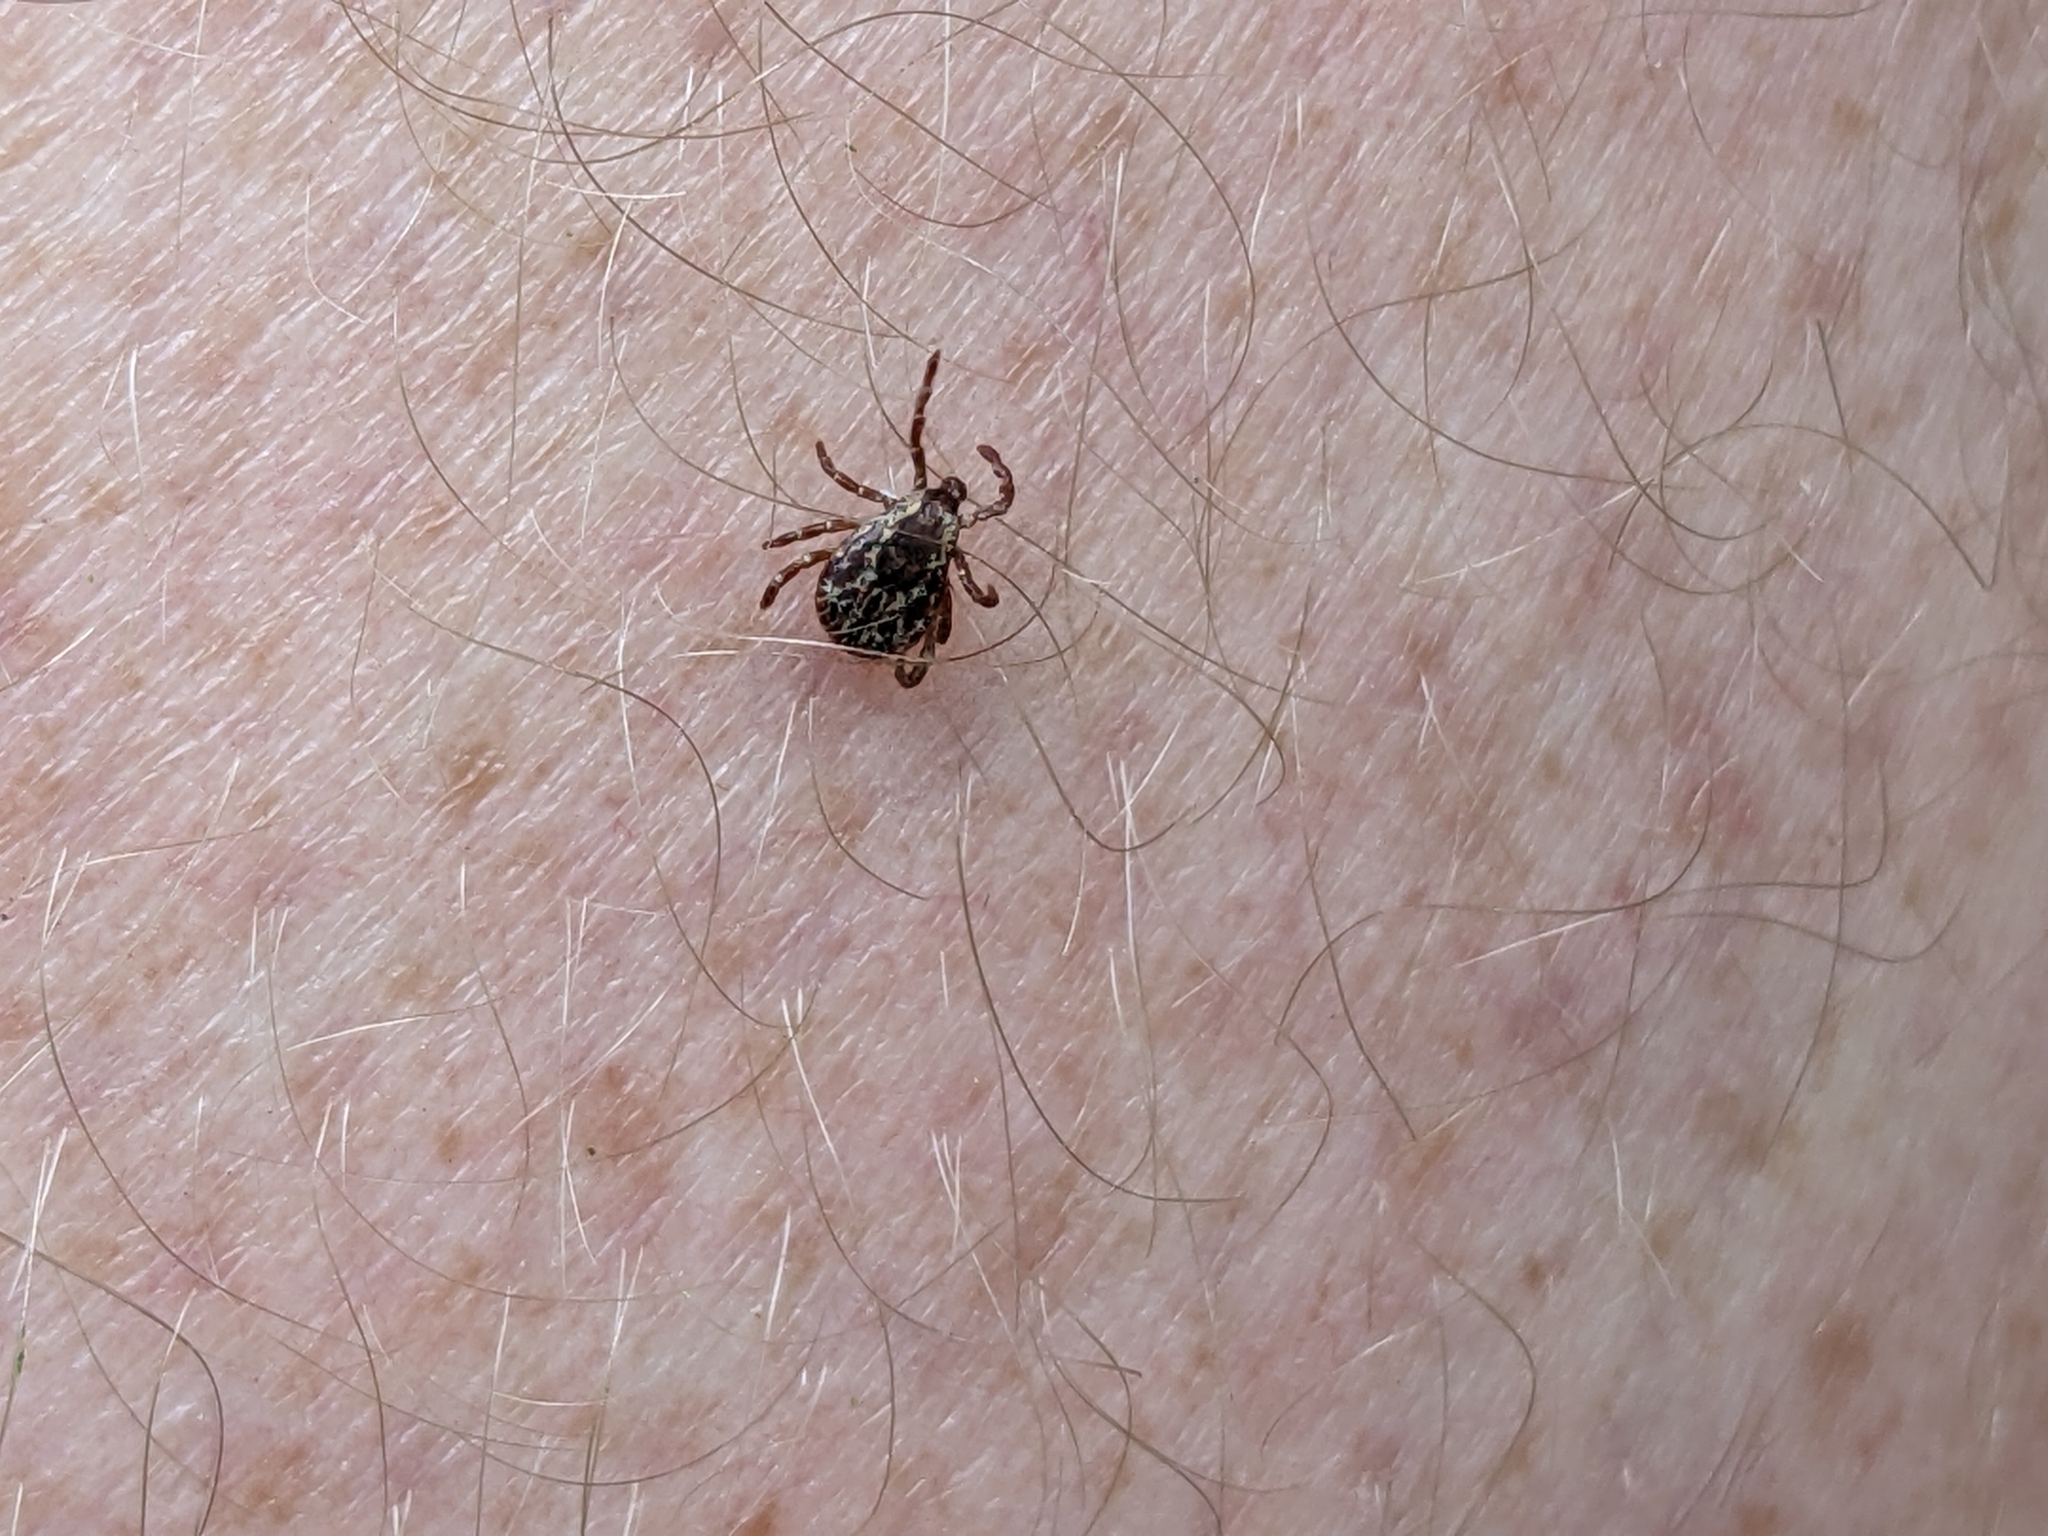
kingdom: Animalia
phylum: Arthropoda
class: Arachnida
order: Ixodida
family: Ixodidae
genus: Dermacentor
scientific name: Dermacentor variabilis
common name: American dog tick
